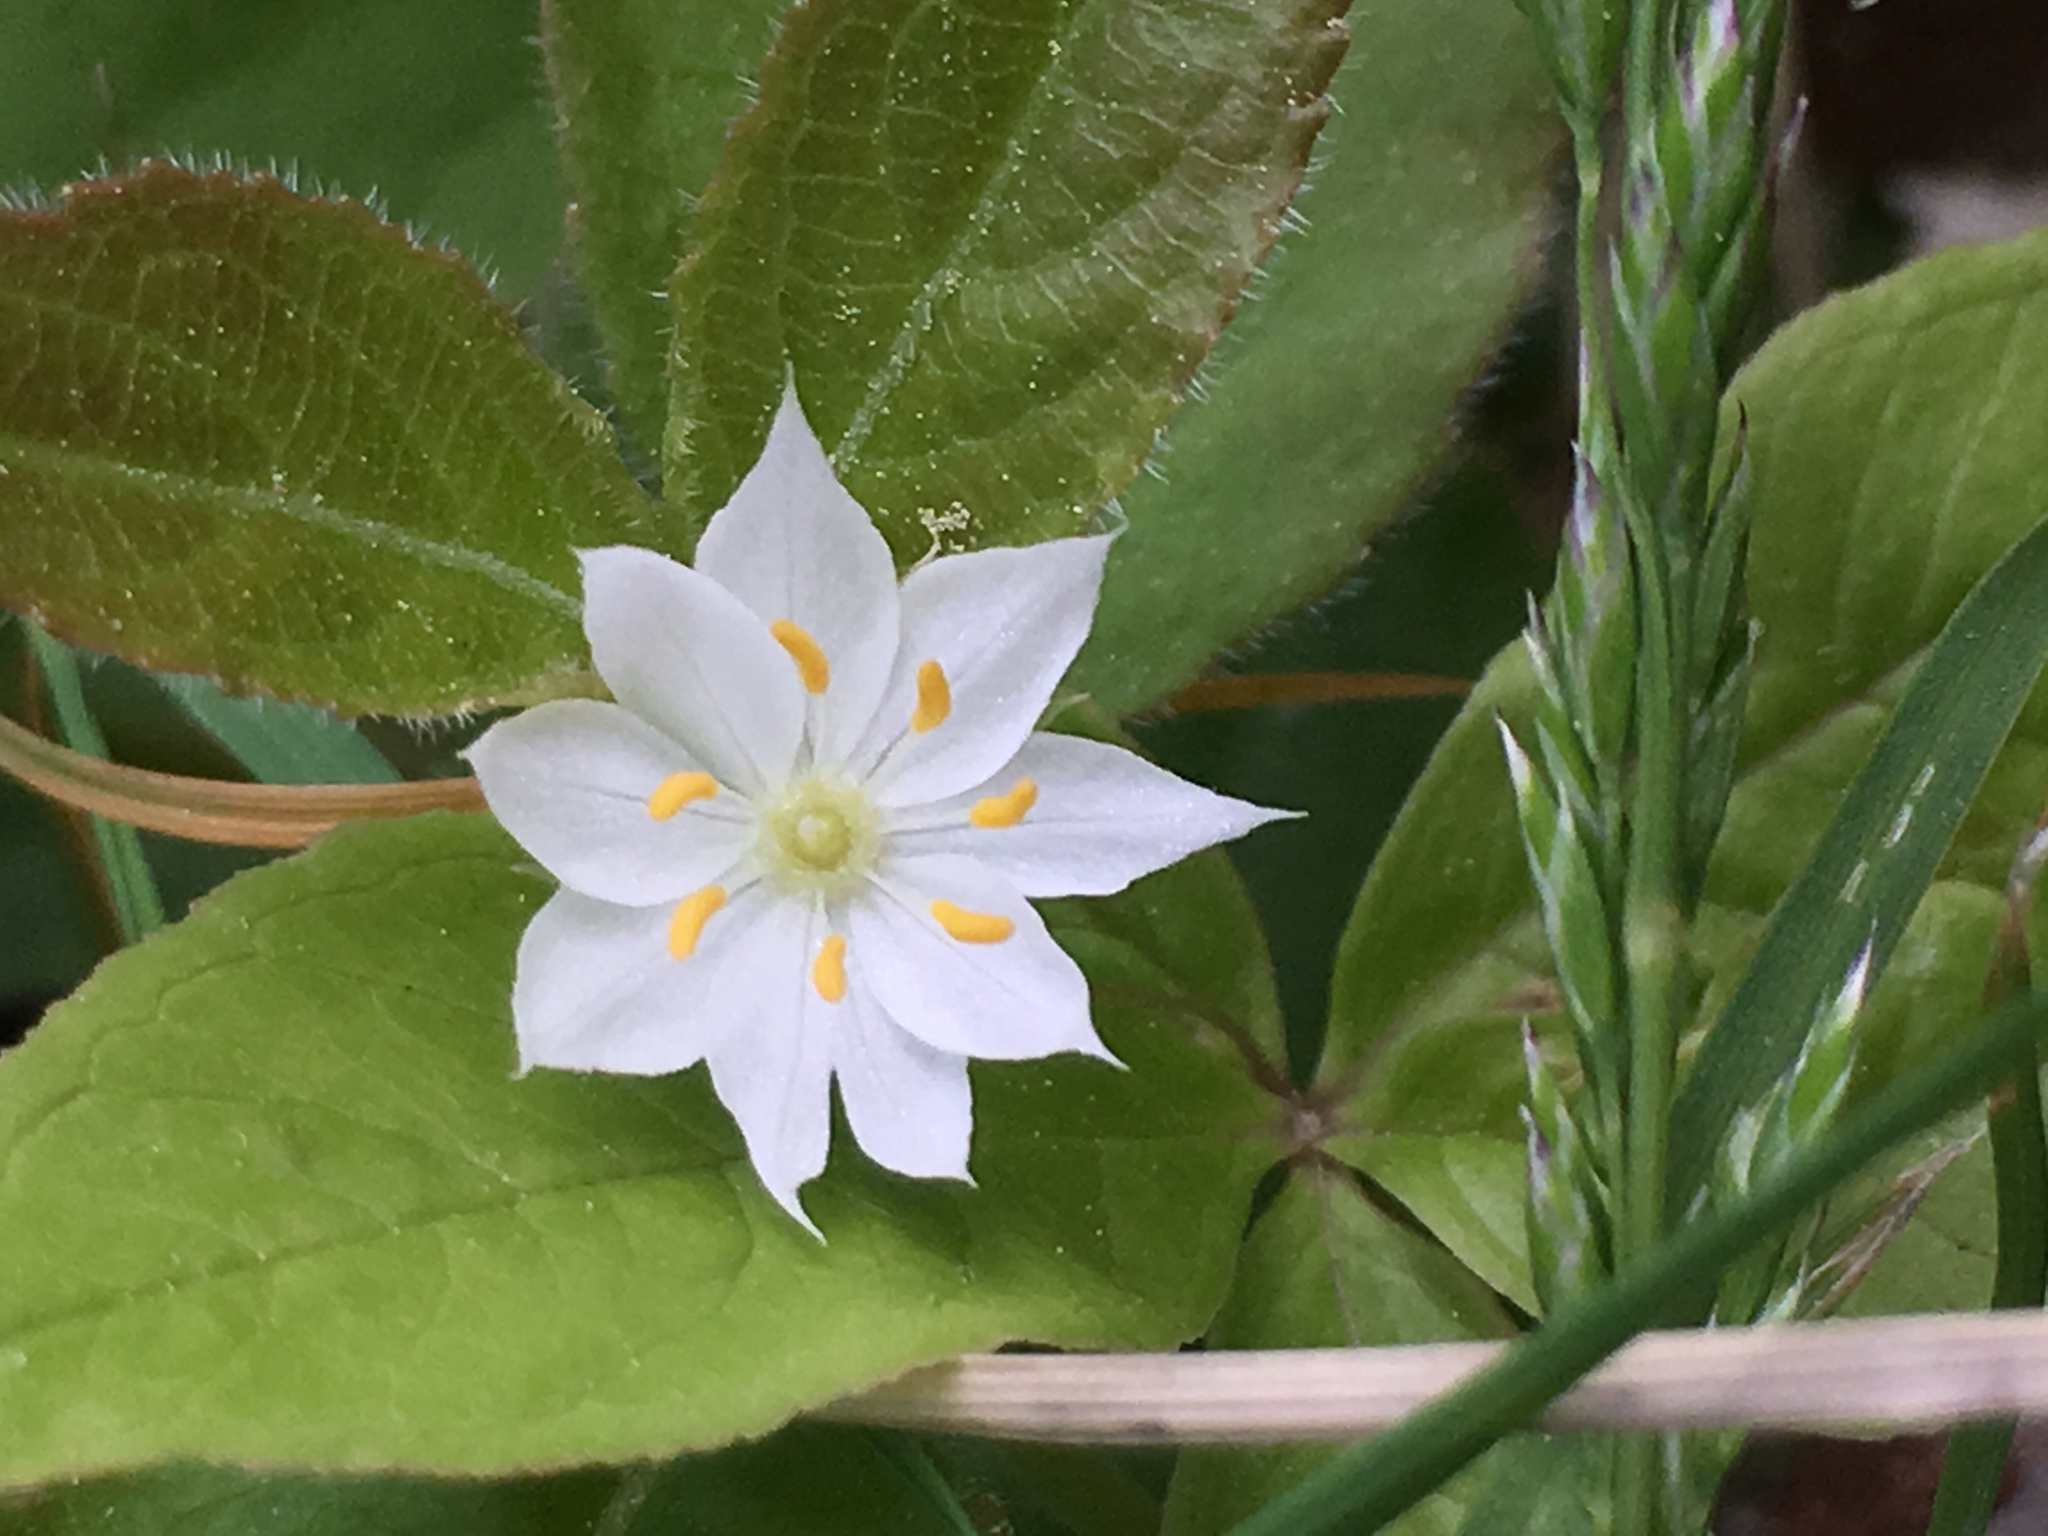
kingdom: Plantae
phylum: Tracheophyta
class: Magnoliopsida
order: Ericales
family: Primulaceae
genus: Lysimachia
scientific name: Lysimachia borealis
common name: American starflower
